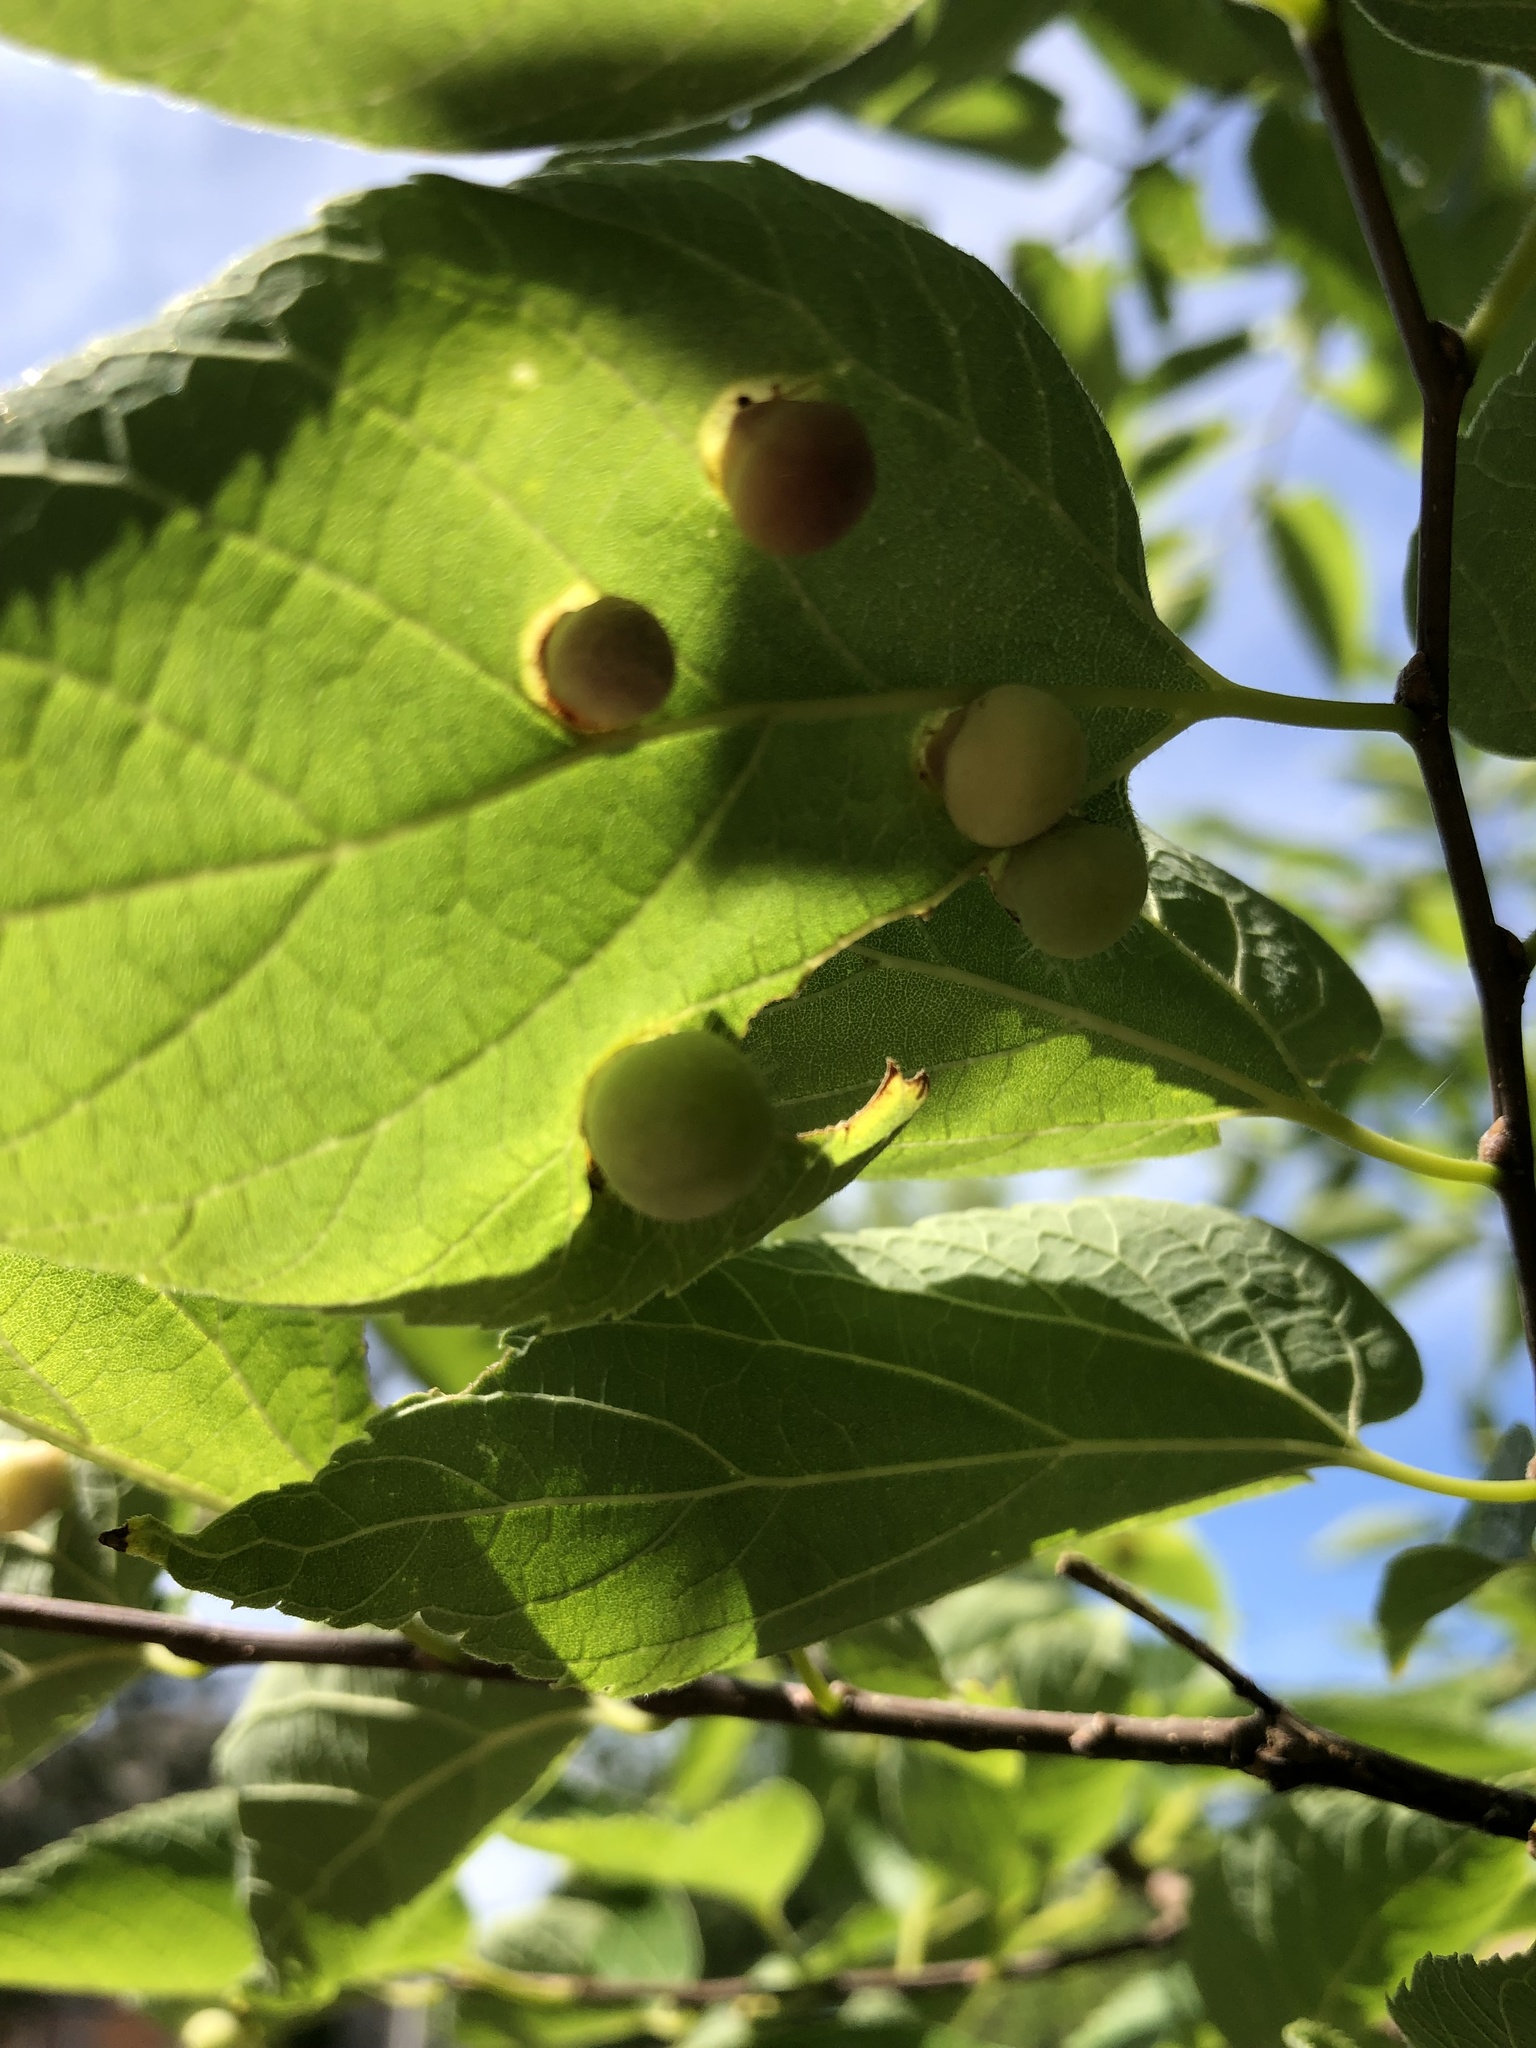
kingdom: Animalia
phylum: Arthropoda
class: Insecta
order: Hemiptera
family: Aphalaridae
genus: Pachypsylla
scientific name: Pachypsylla celtidismamma
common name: Hackberry nipplegall psyllid
